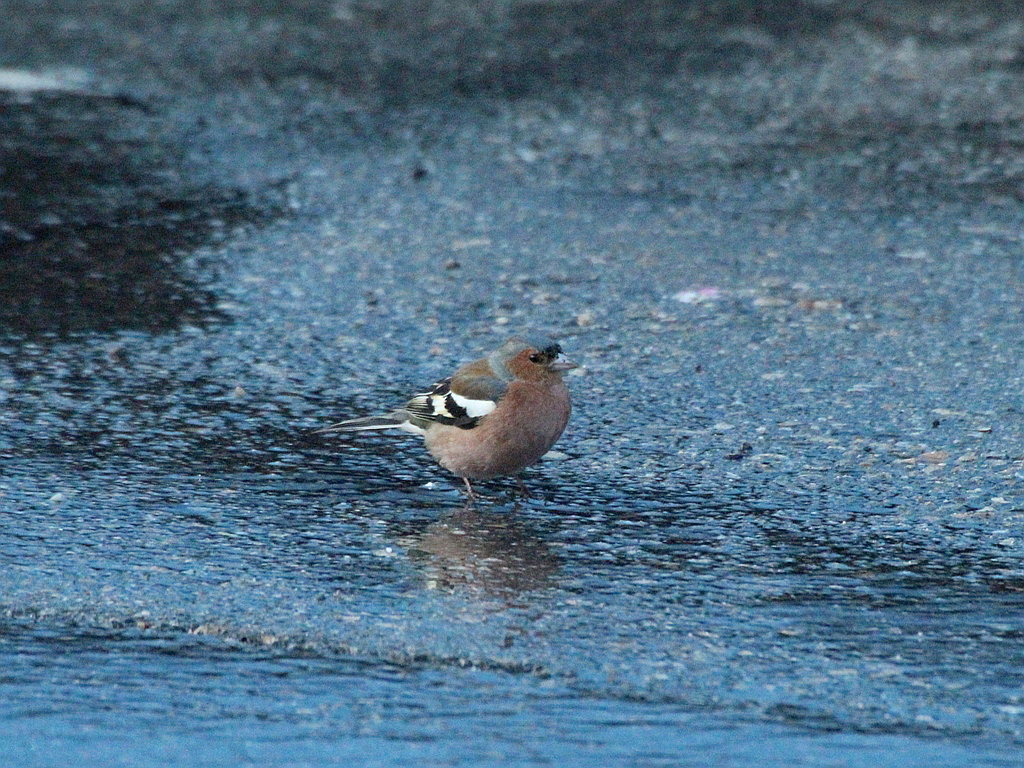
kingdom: Animalia
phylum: Chordata
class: Aves
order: Passeriformes
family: Fringillidae
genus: Fringilla
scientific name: Fringilla coelebs
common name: Common chaffinch
